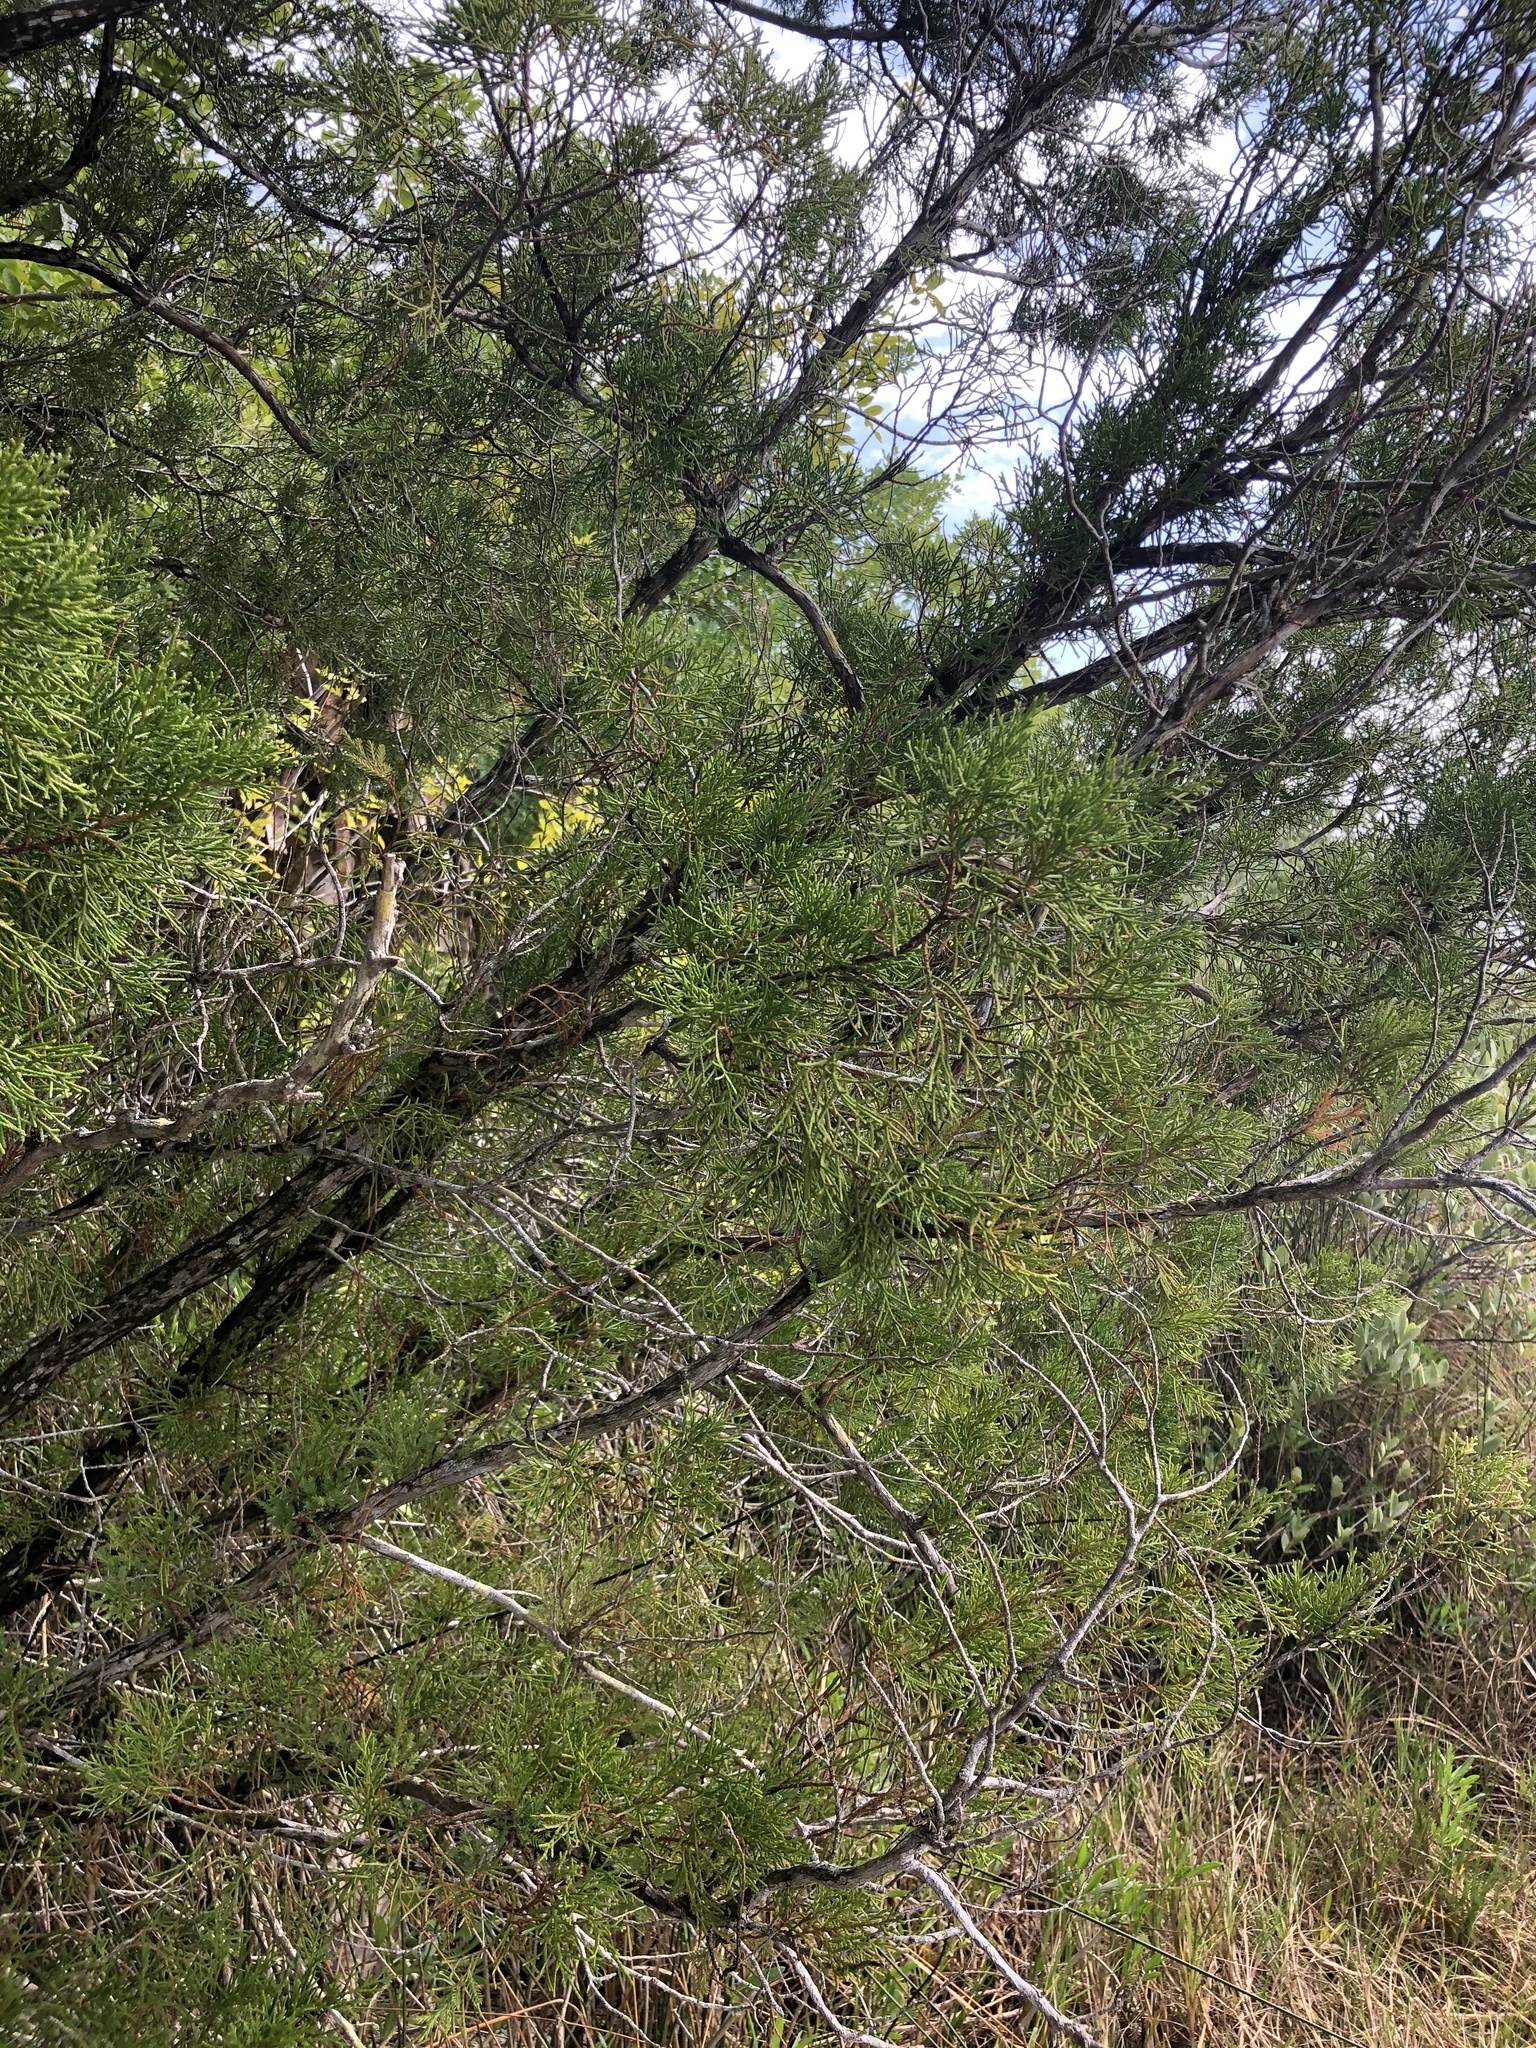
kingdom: Plantae
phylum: Tracheophyta
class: Pinopsida
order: Pinales
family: Cupressaceae
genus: Juniperus
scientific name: Juniperus virginiana
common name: Red juniper
